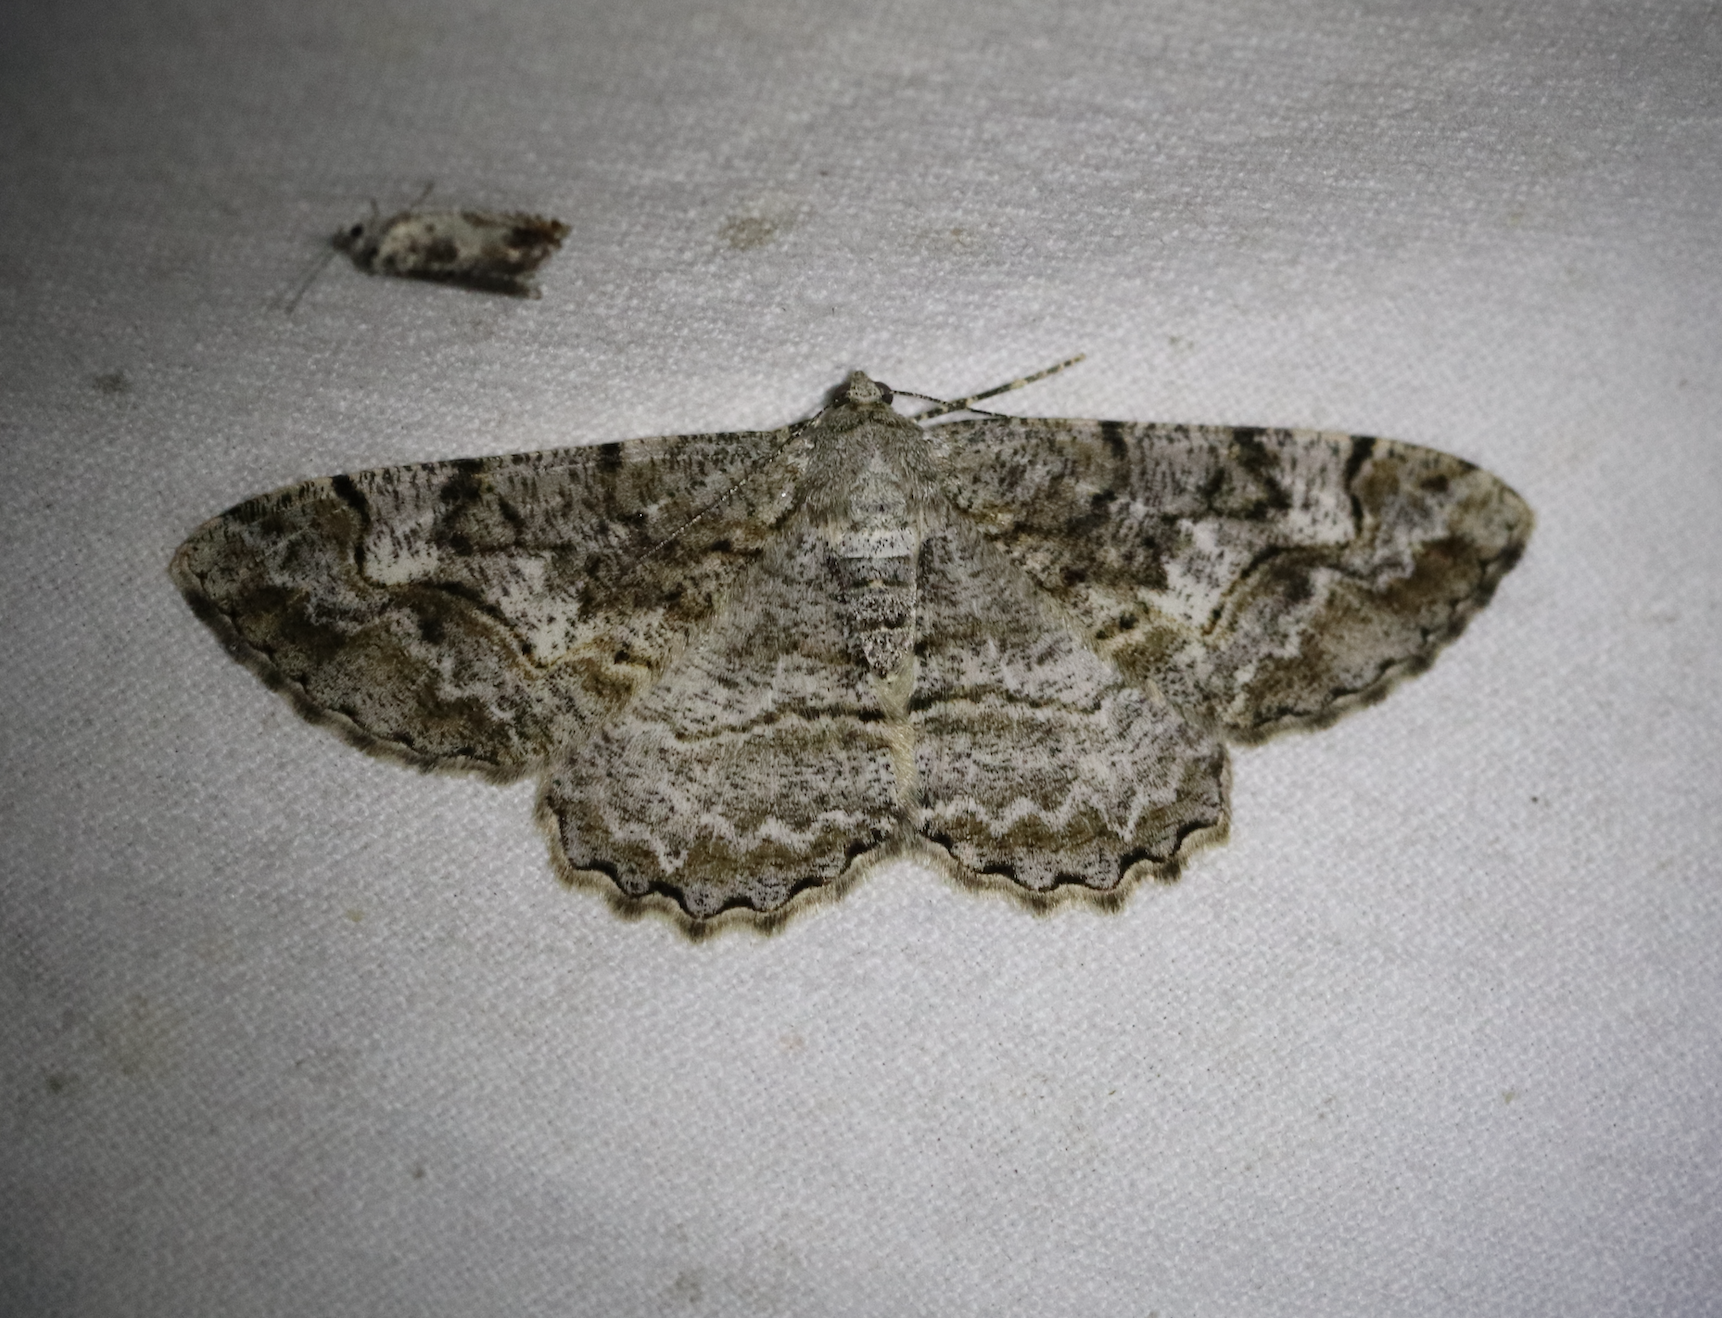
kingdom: Animalia
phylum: Arthropoda
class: Insecta
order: Lepidoptera
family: Geometridae
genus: Alcis
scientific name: Alcis repandata
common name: Mottled beauty
